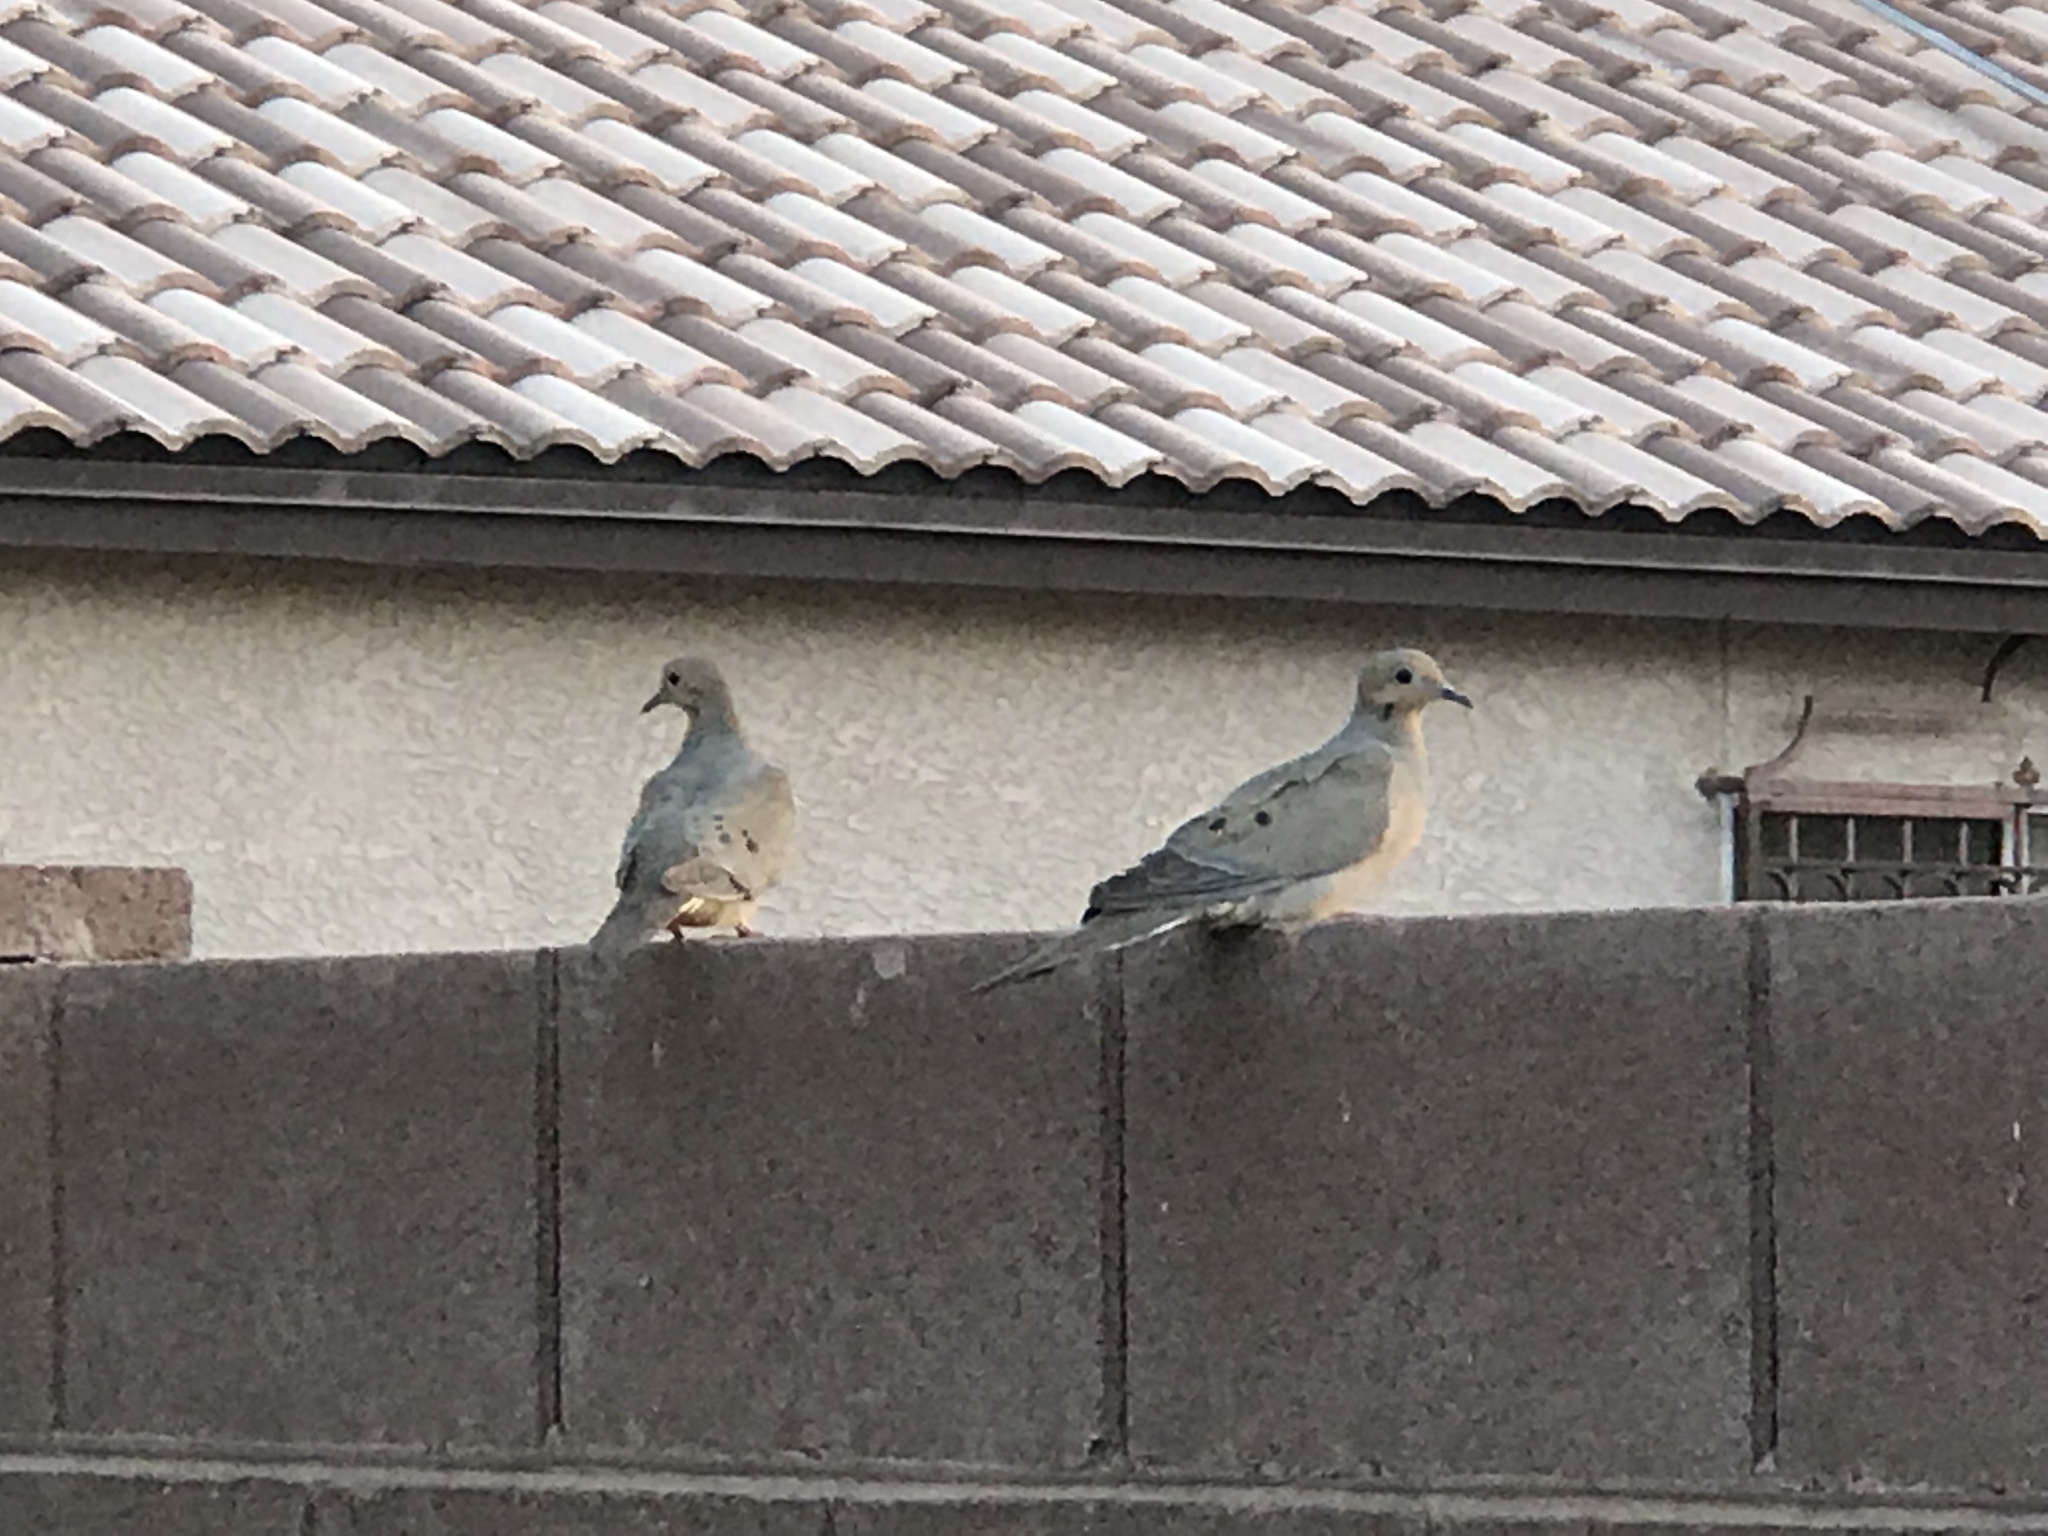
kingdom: Animalia
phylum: Chordata
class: Aves
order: Columbiformes
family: Columbidae
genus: Zenaida
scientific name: Zenaida macroura
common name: Mourning dove
